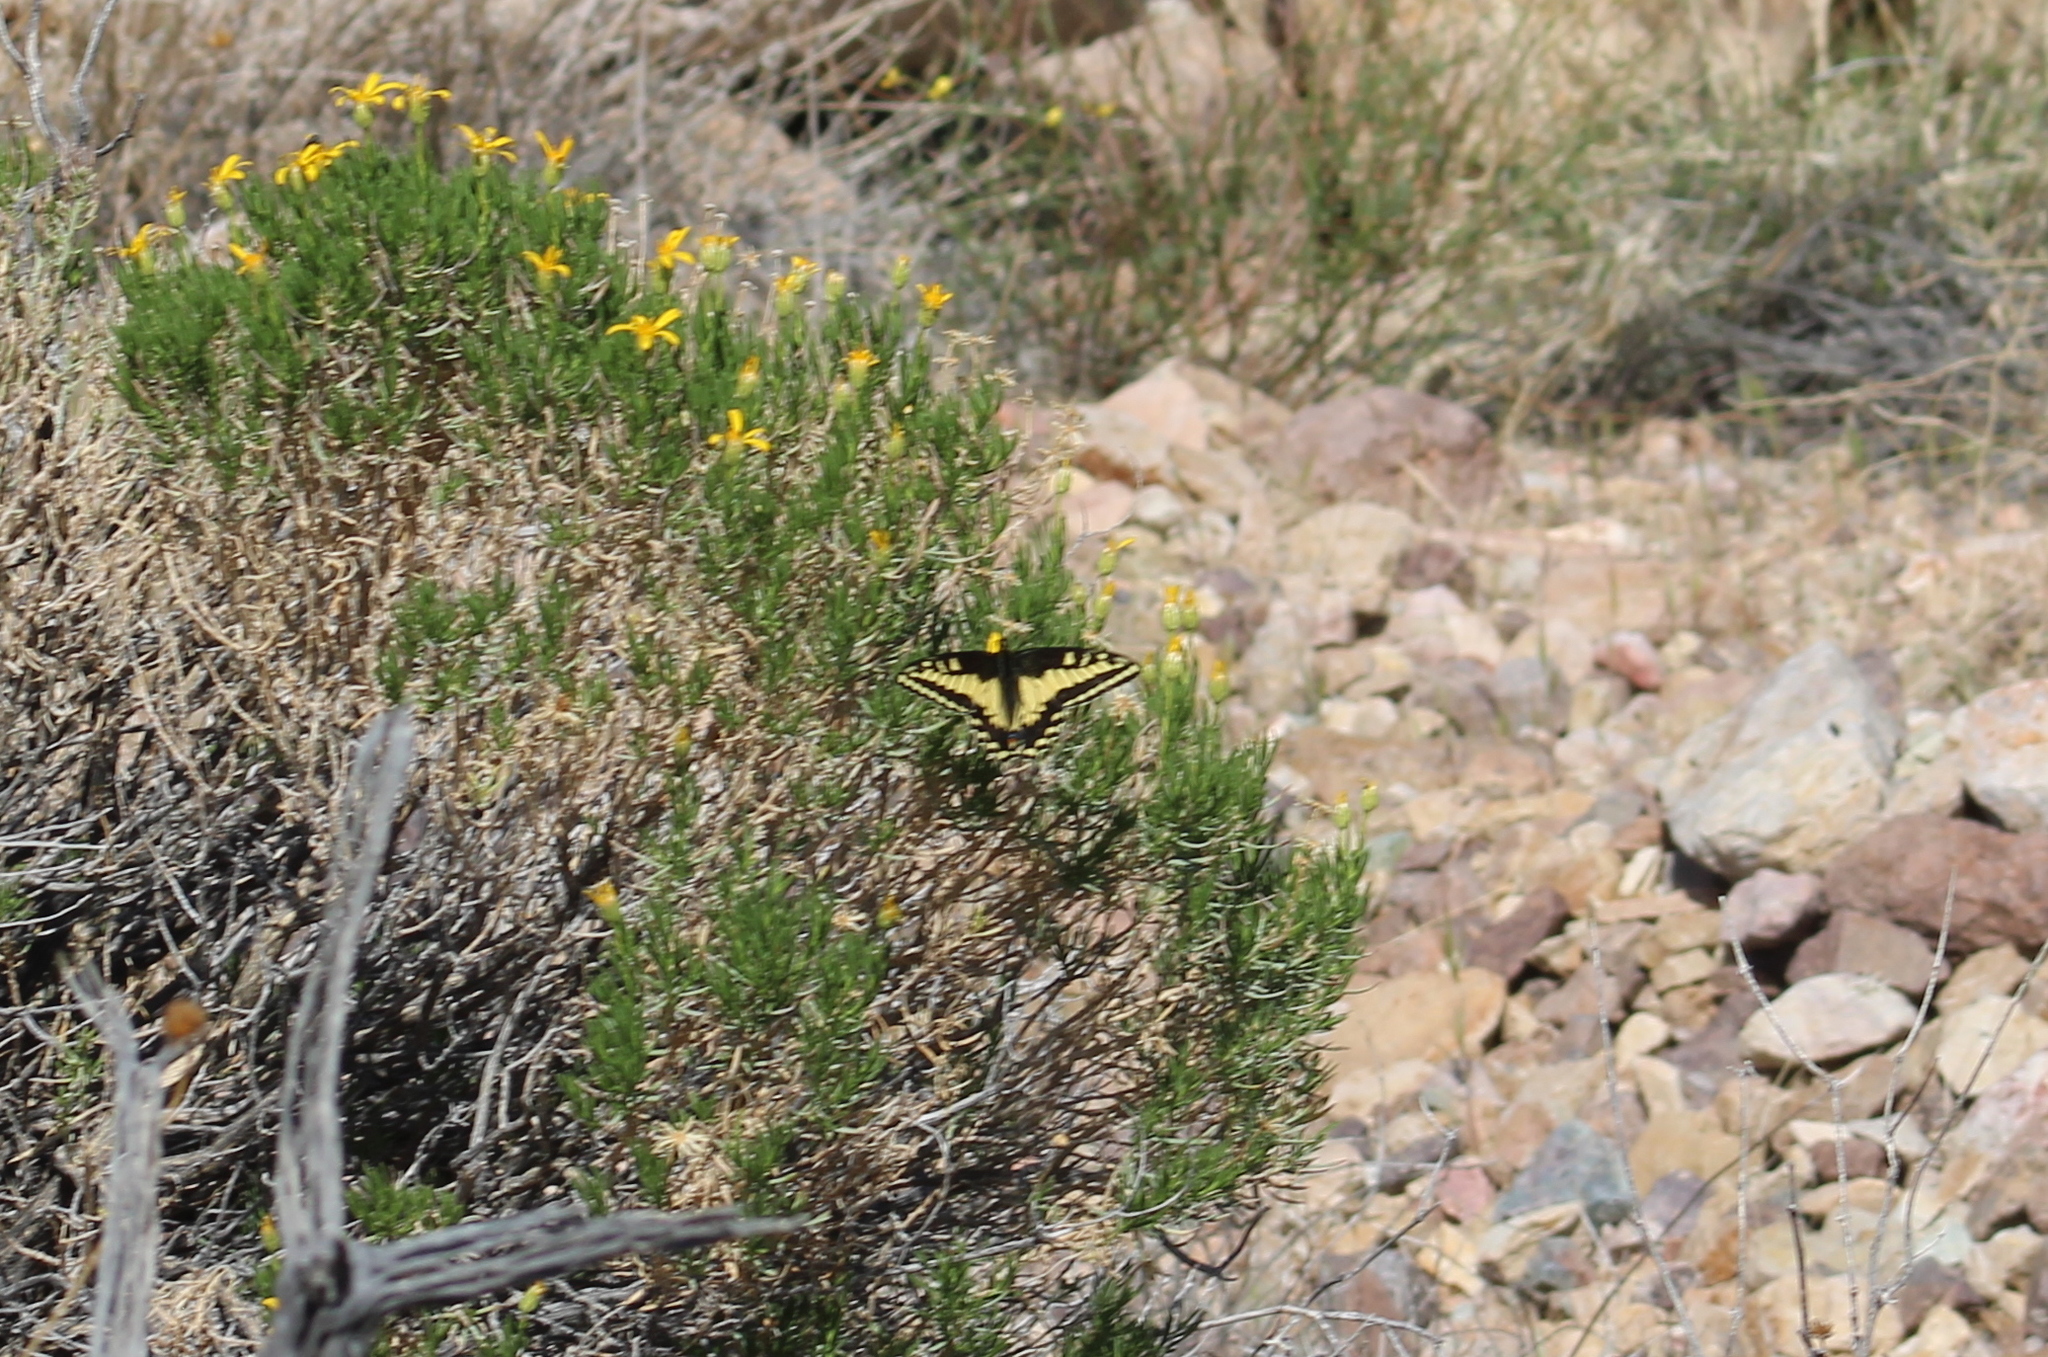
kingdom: Animalia
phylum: Arthropoda
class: Insecta
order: Lepidoptera
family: Papilionidae
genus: Papilio
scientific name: Papilio polyxenes
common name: Black swallowtail
